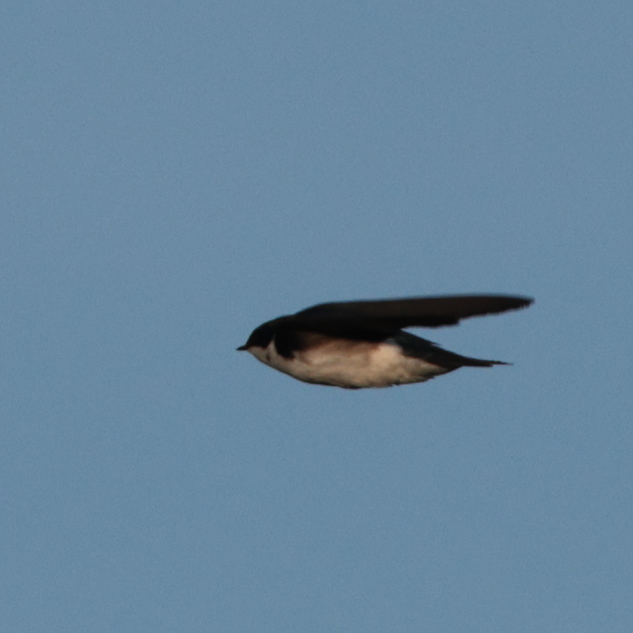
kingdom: Animalia
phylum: Chordata
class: Aves
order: Passeriformes
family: Hirundinidae
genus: Tachycineta
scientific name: Tachycineta bicolor
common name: Tree swallow
